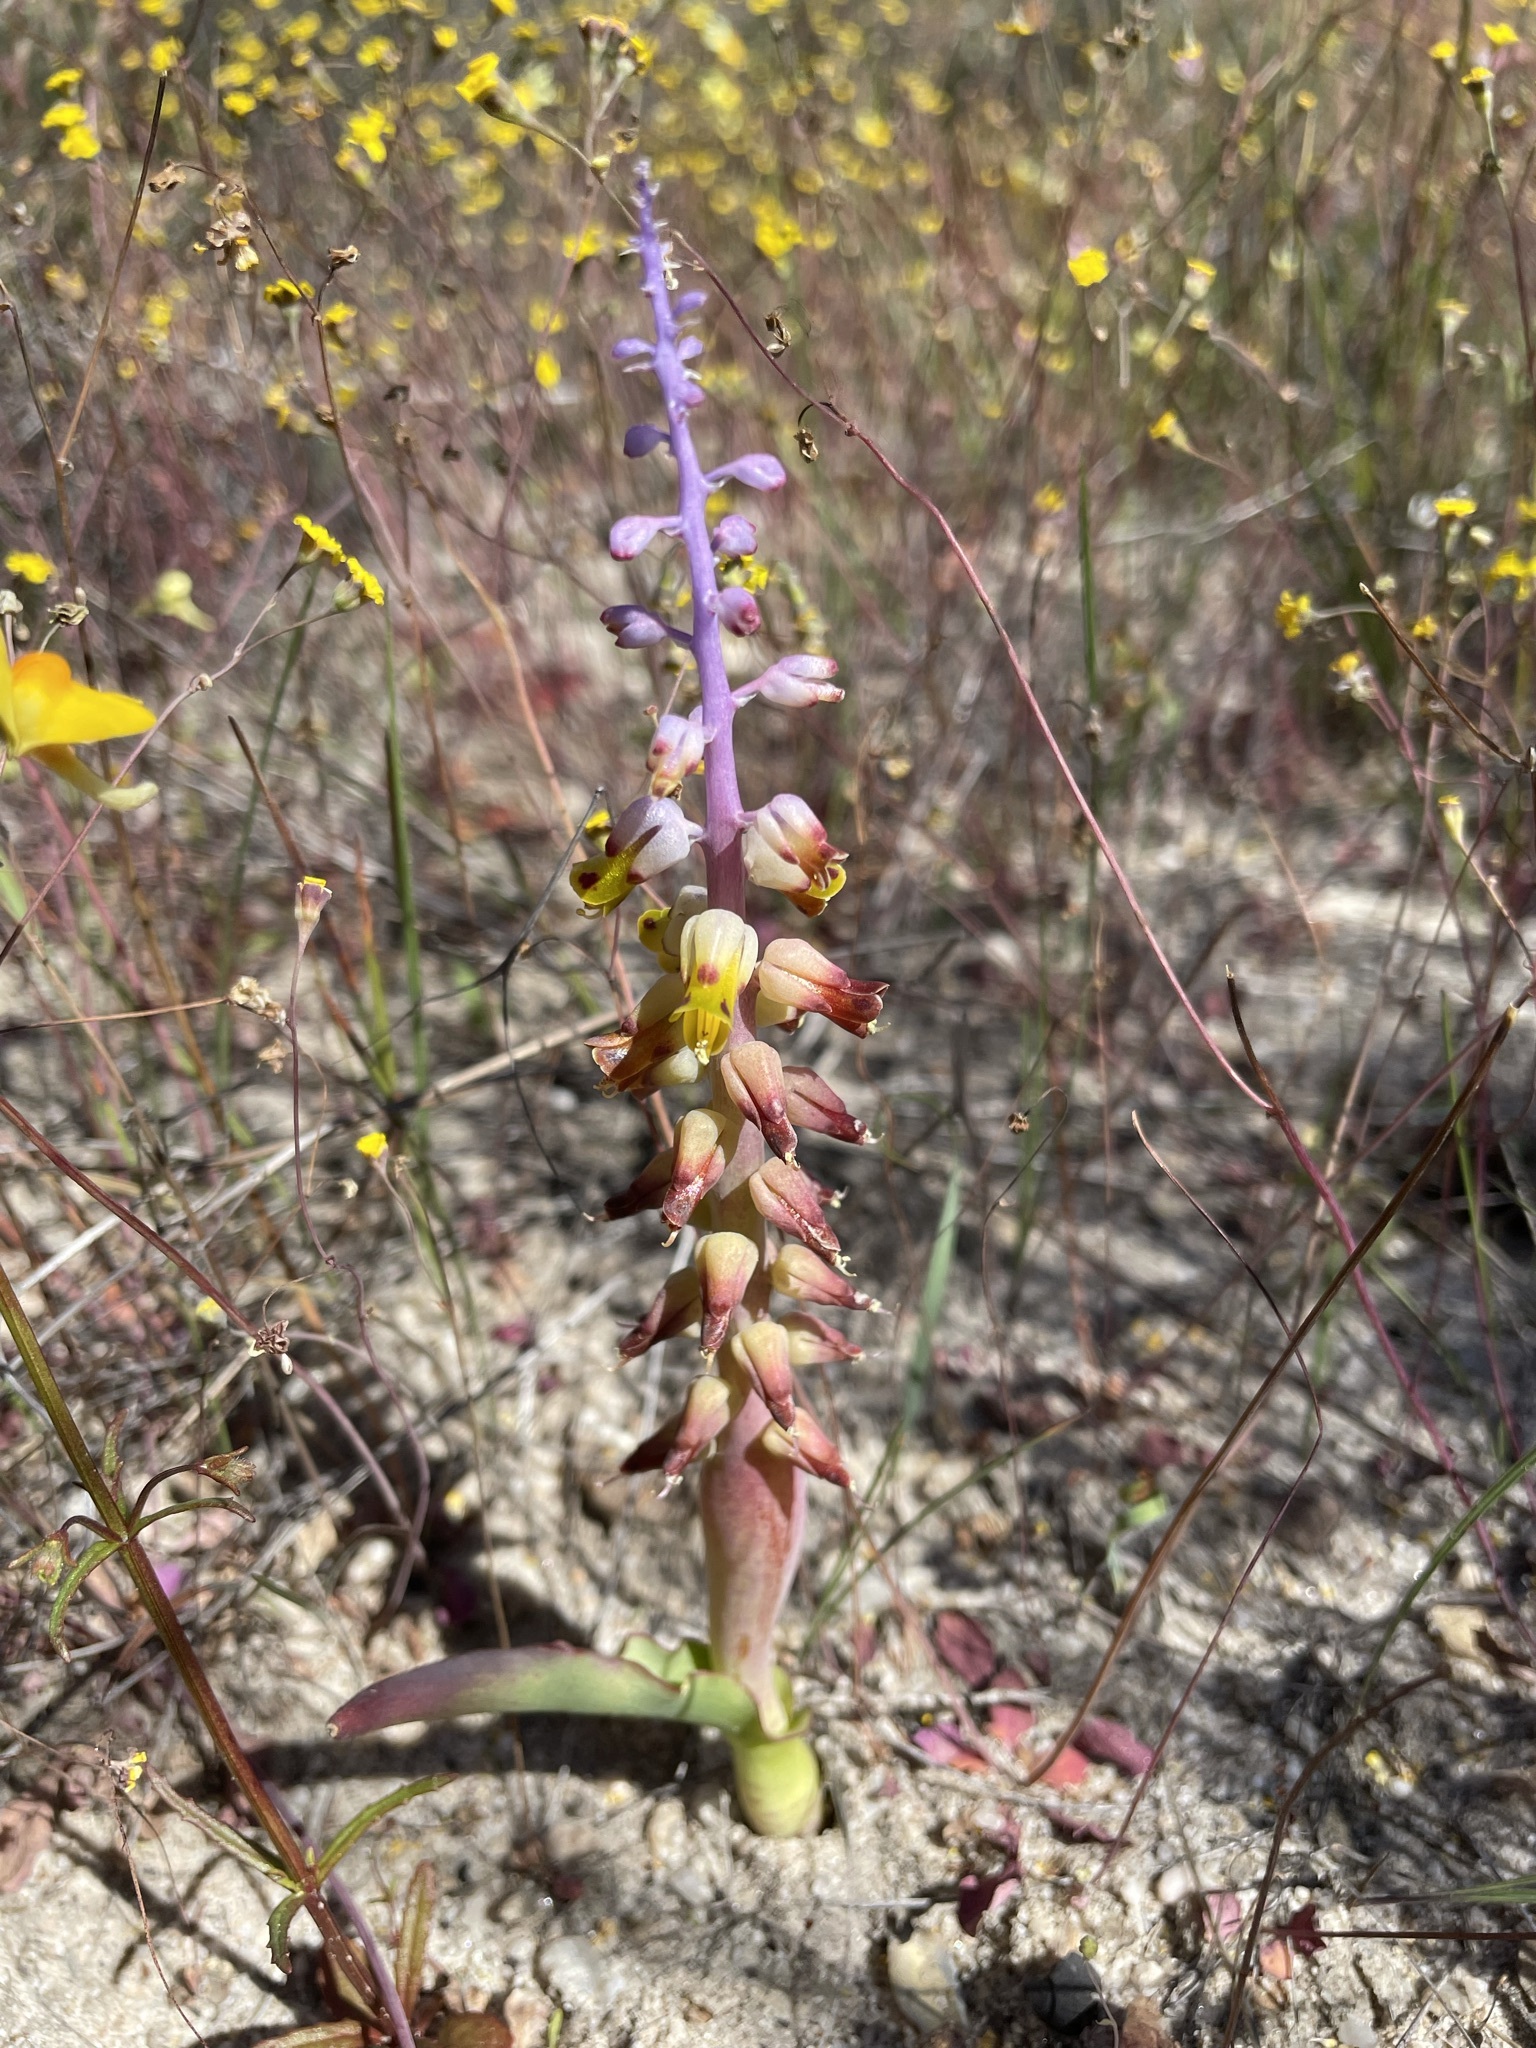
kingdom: Plantae
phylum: Tracheophyta
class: Liliopsida
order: Asparagales
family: Asparagaceae
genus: Lachenalia
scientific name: Lachenalia mutabilis
